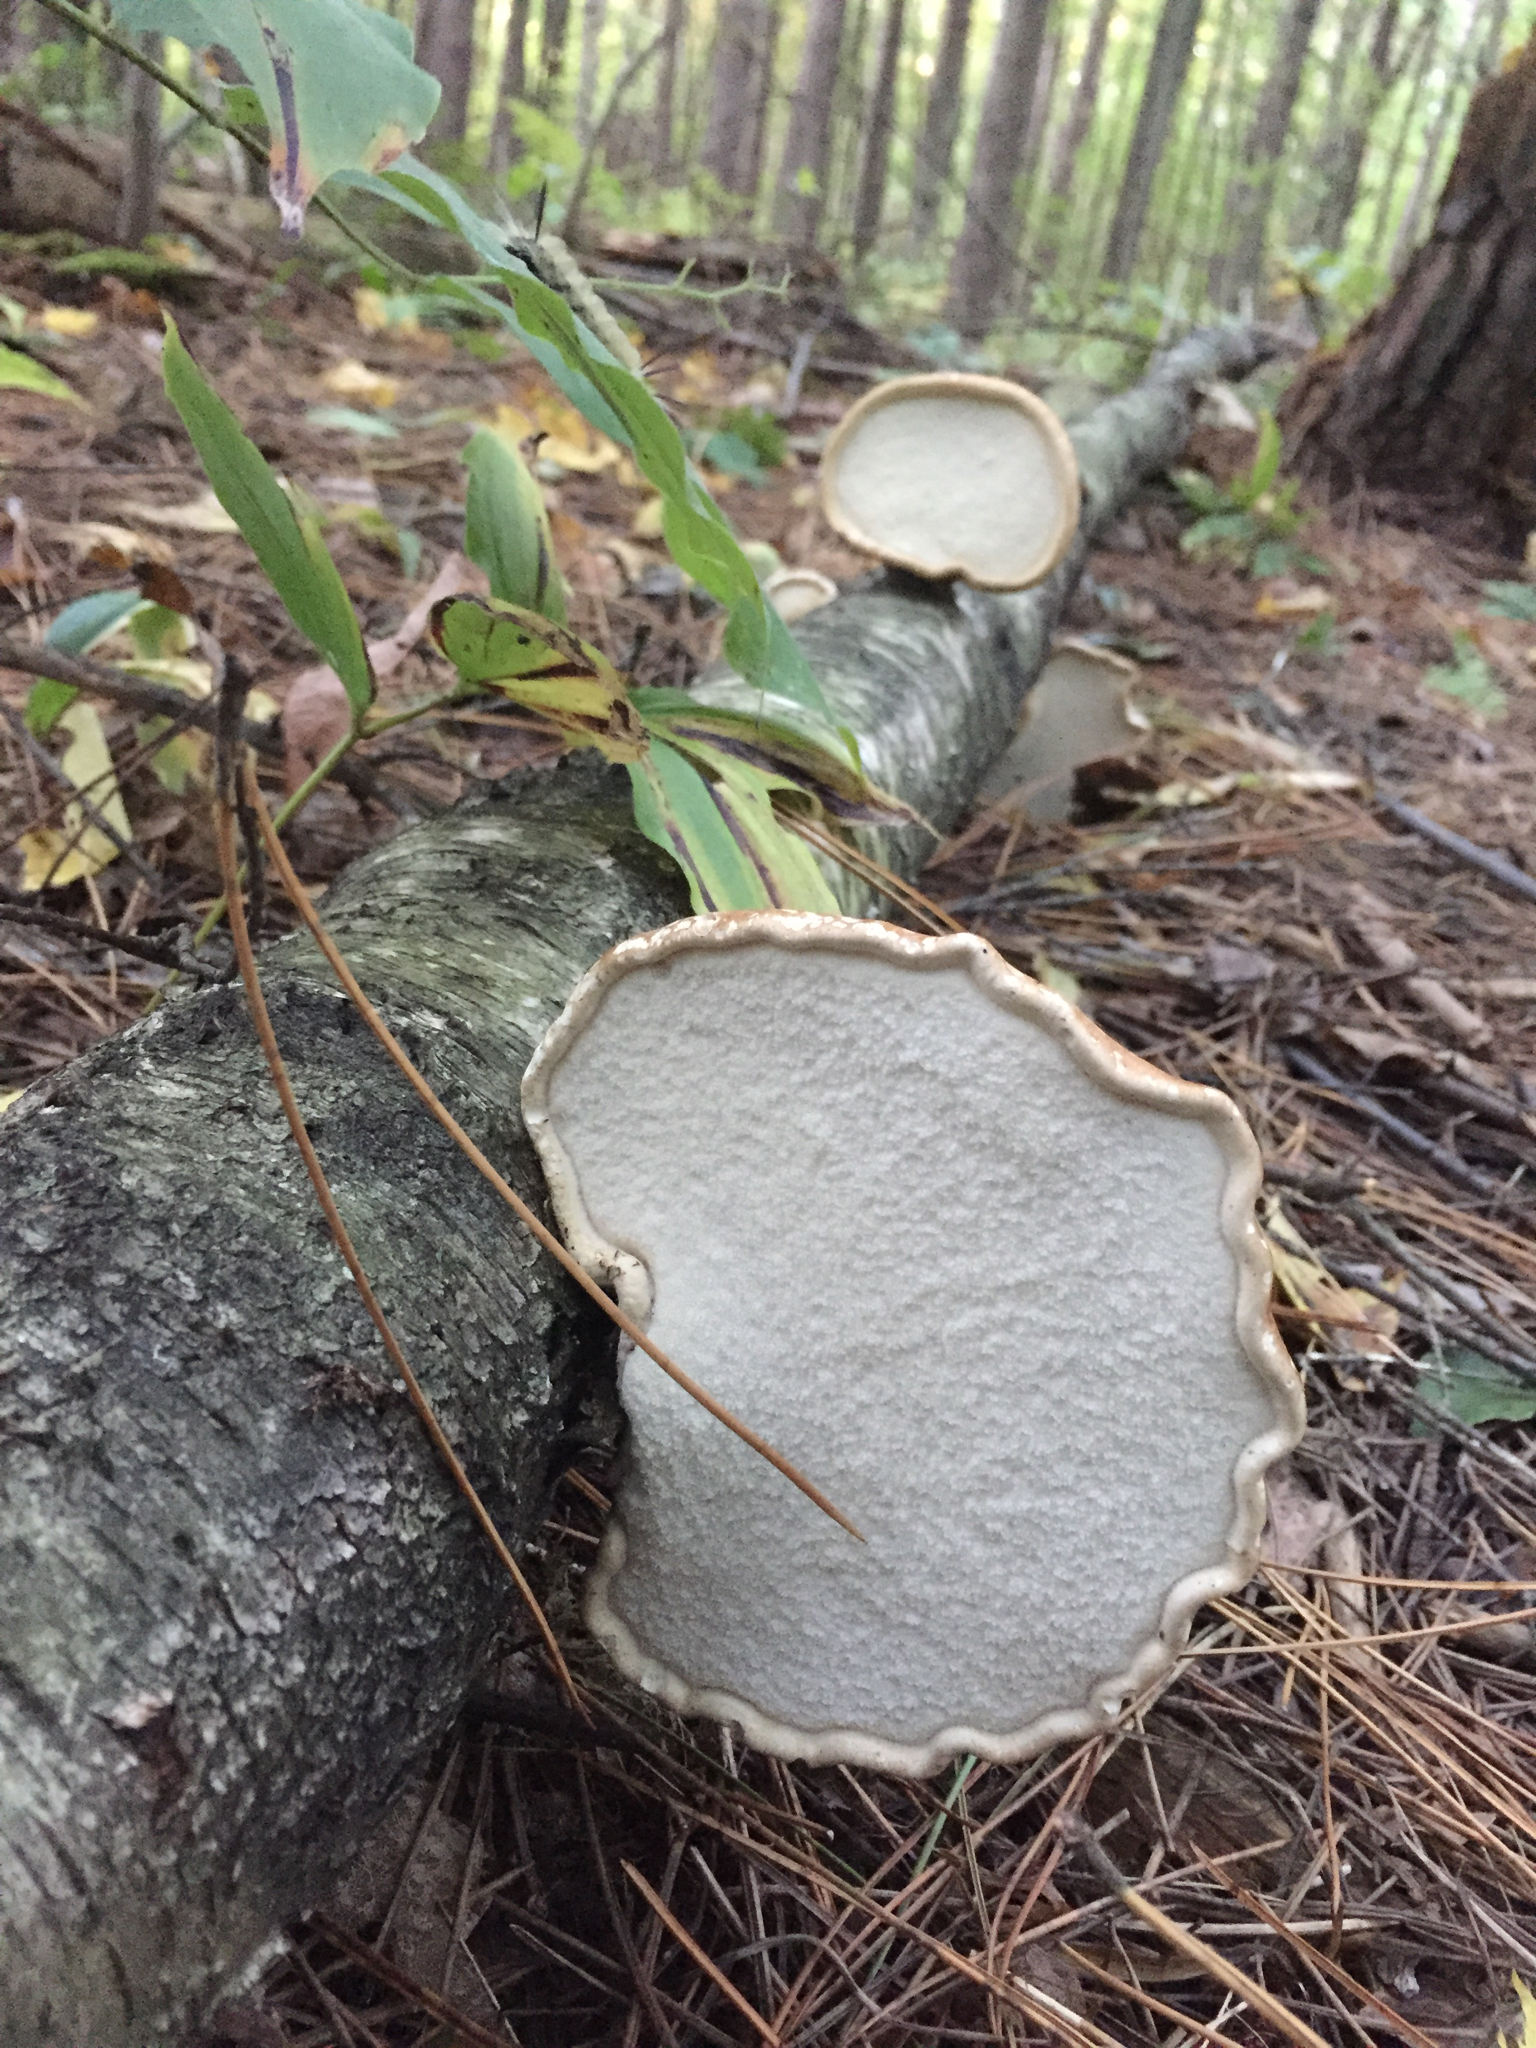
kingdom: Fungi
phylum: Basidiomycota
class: Agaricomycetes
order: Polyporales
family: Fomitopsidaceae
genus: Fomitopsis
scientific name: Fomitopsis betulina
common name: Birch polypore
